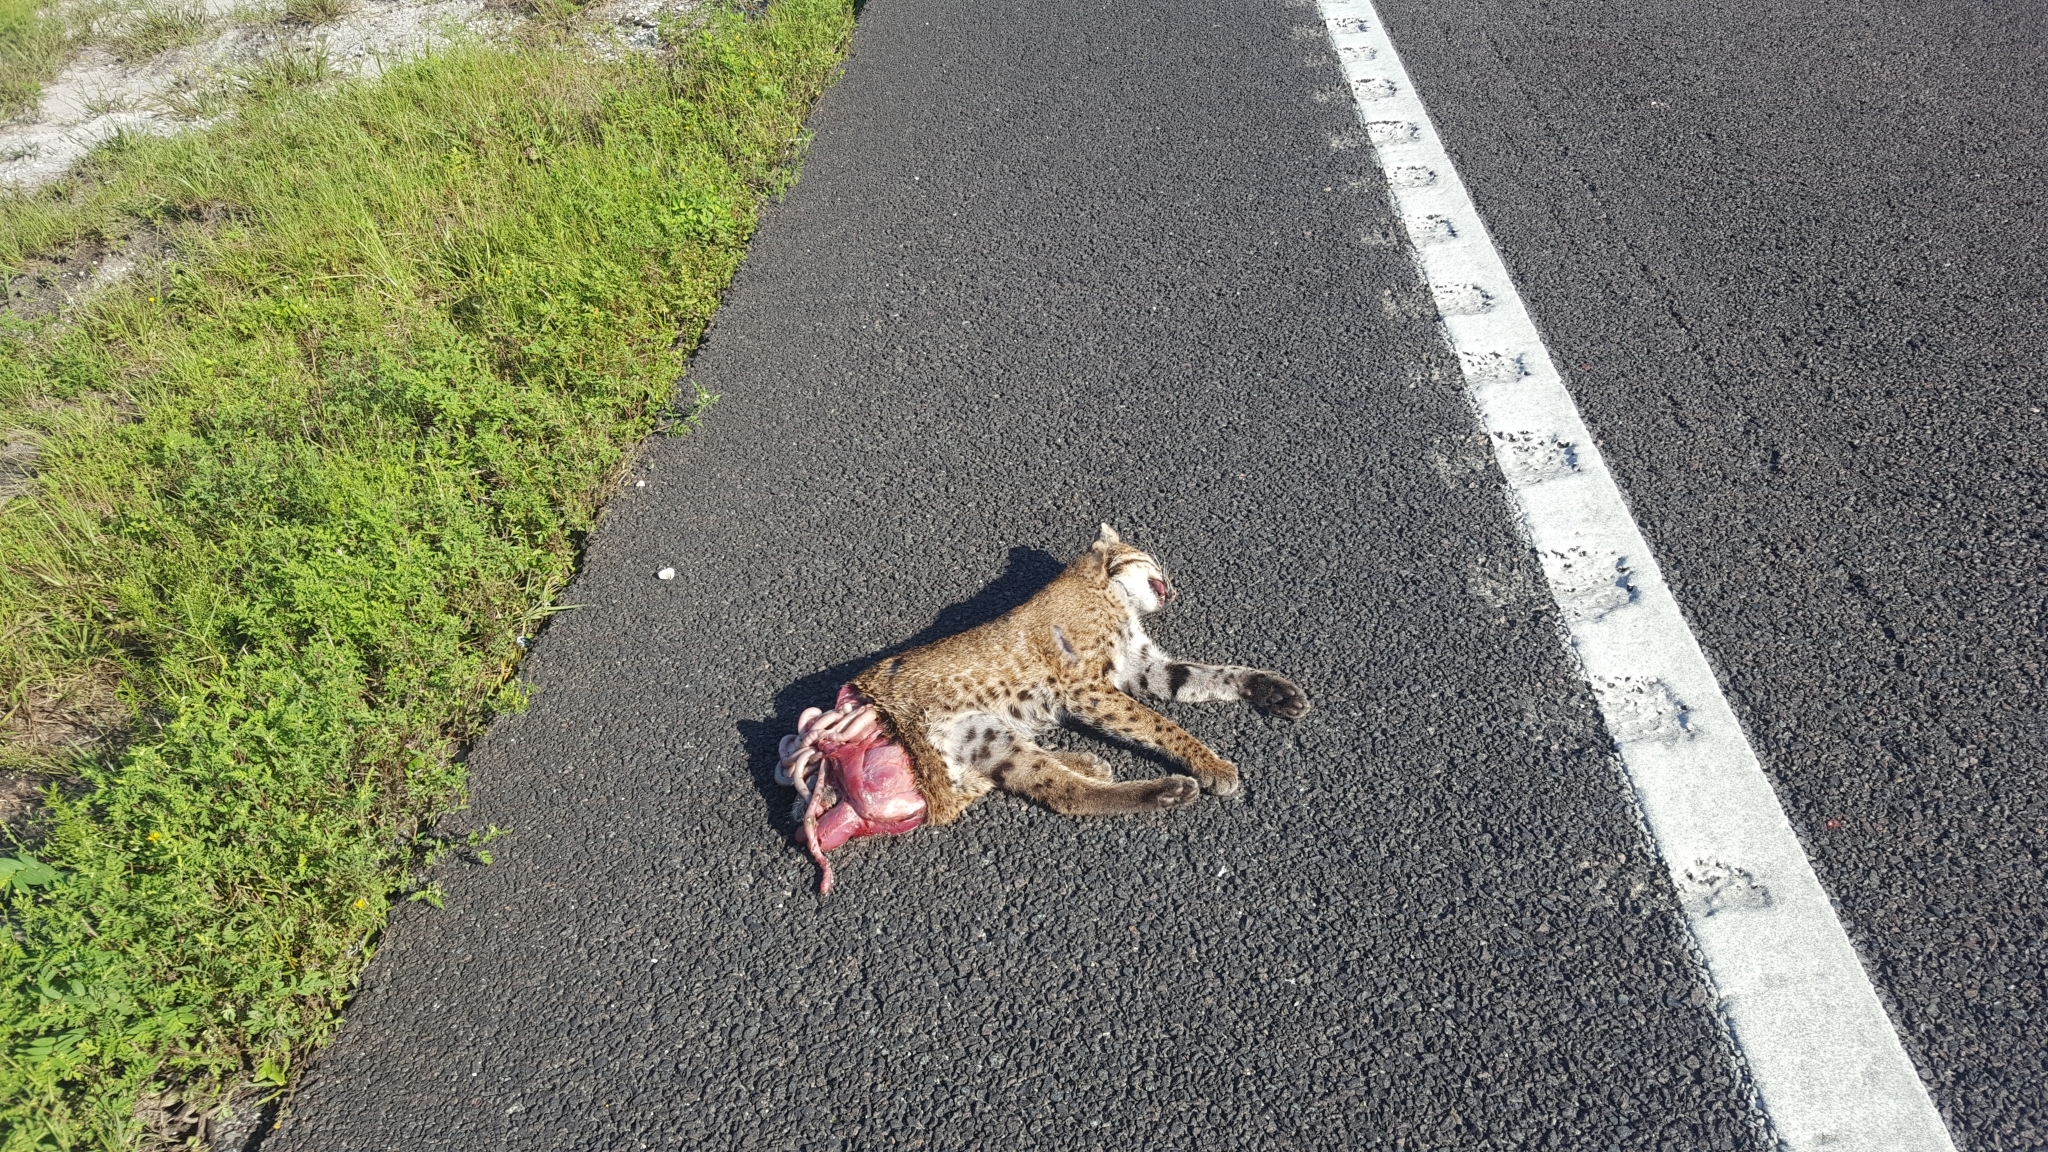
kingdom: Animalia
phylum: Chordata
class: Mammalia
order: Carnivora
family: Felidae
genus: Lynx
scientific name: Lynx rufus
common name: Bobcat
